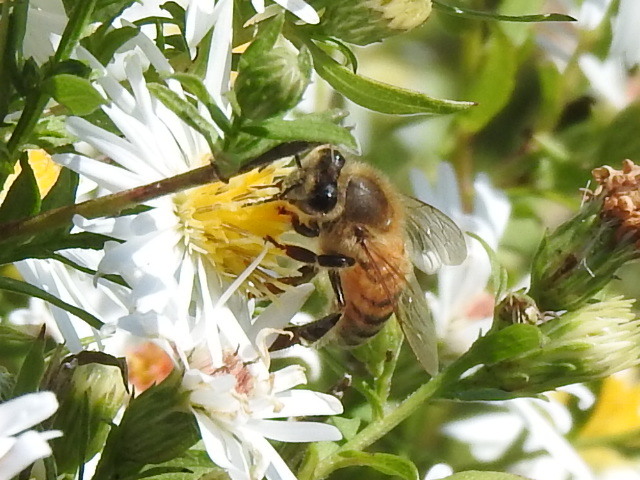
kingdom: Animalia
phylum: Arthropoda
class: Insecta
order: Hymenoptera
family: Apidae
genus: Apis
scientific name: Apis mellifera
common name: Honey bee
